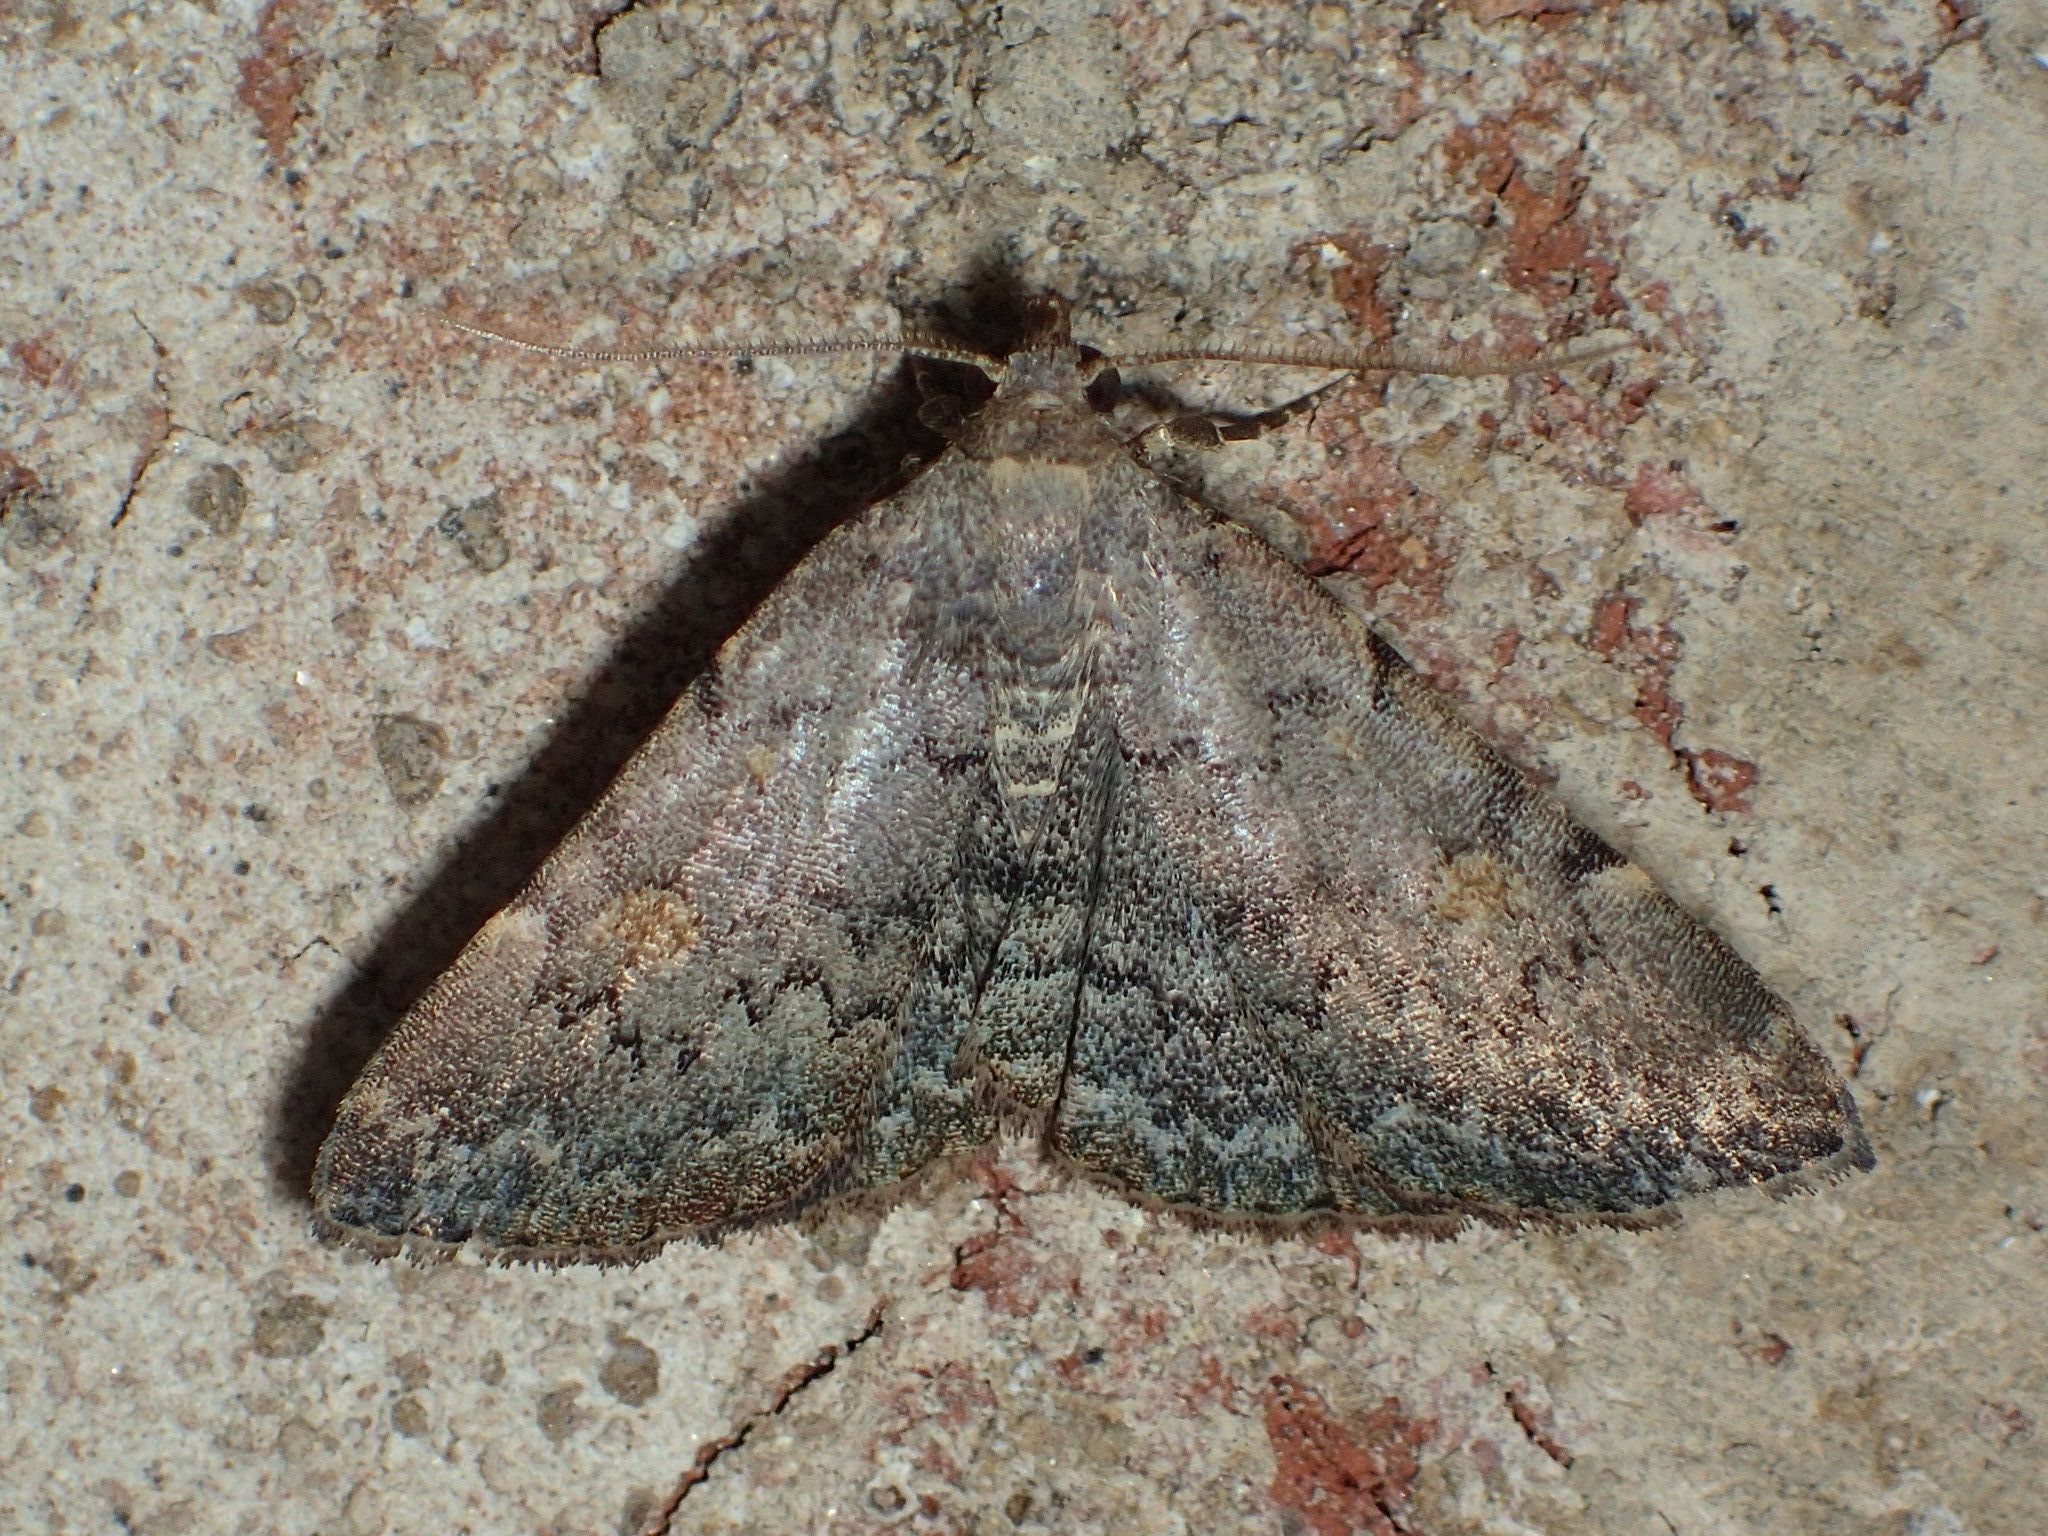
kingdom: Animalia
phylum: Arthropoda
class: Insecta
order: Lepidoptera
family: Erebidae
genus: Idia
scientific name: Idia aemula
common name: Common idia moth
